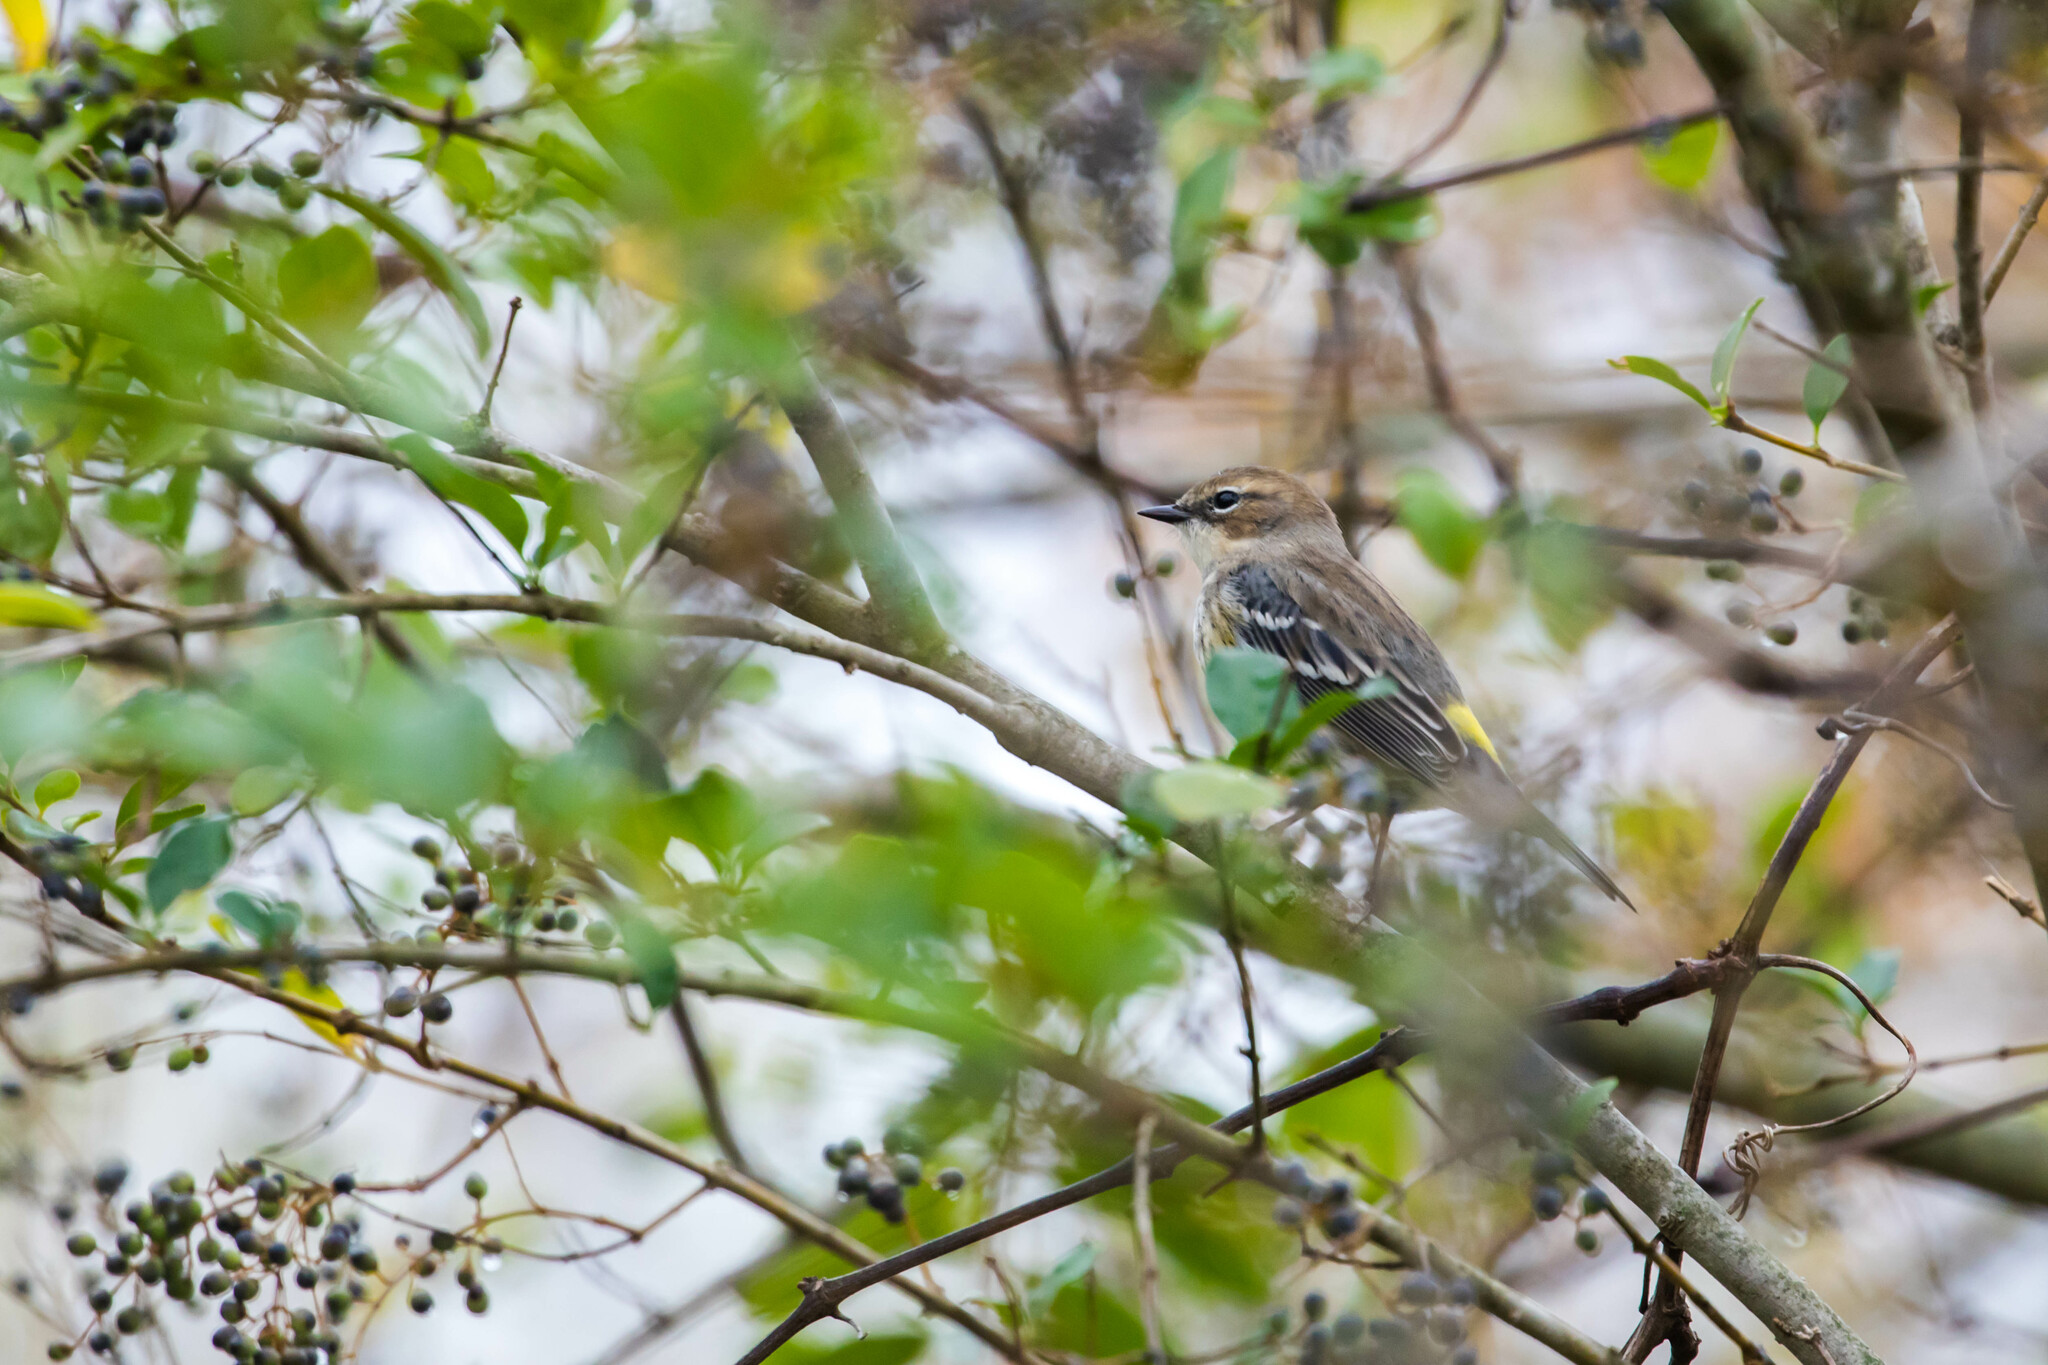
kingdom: Animalia
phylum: Chordata
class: Aves
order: Passeriformes
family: Parulidae
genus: Setophaga
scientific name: Setophaga coronata
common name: Myrtle warbler
